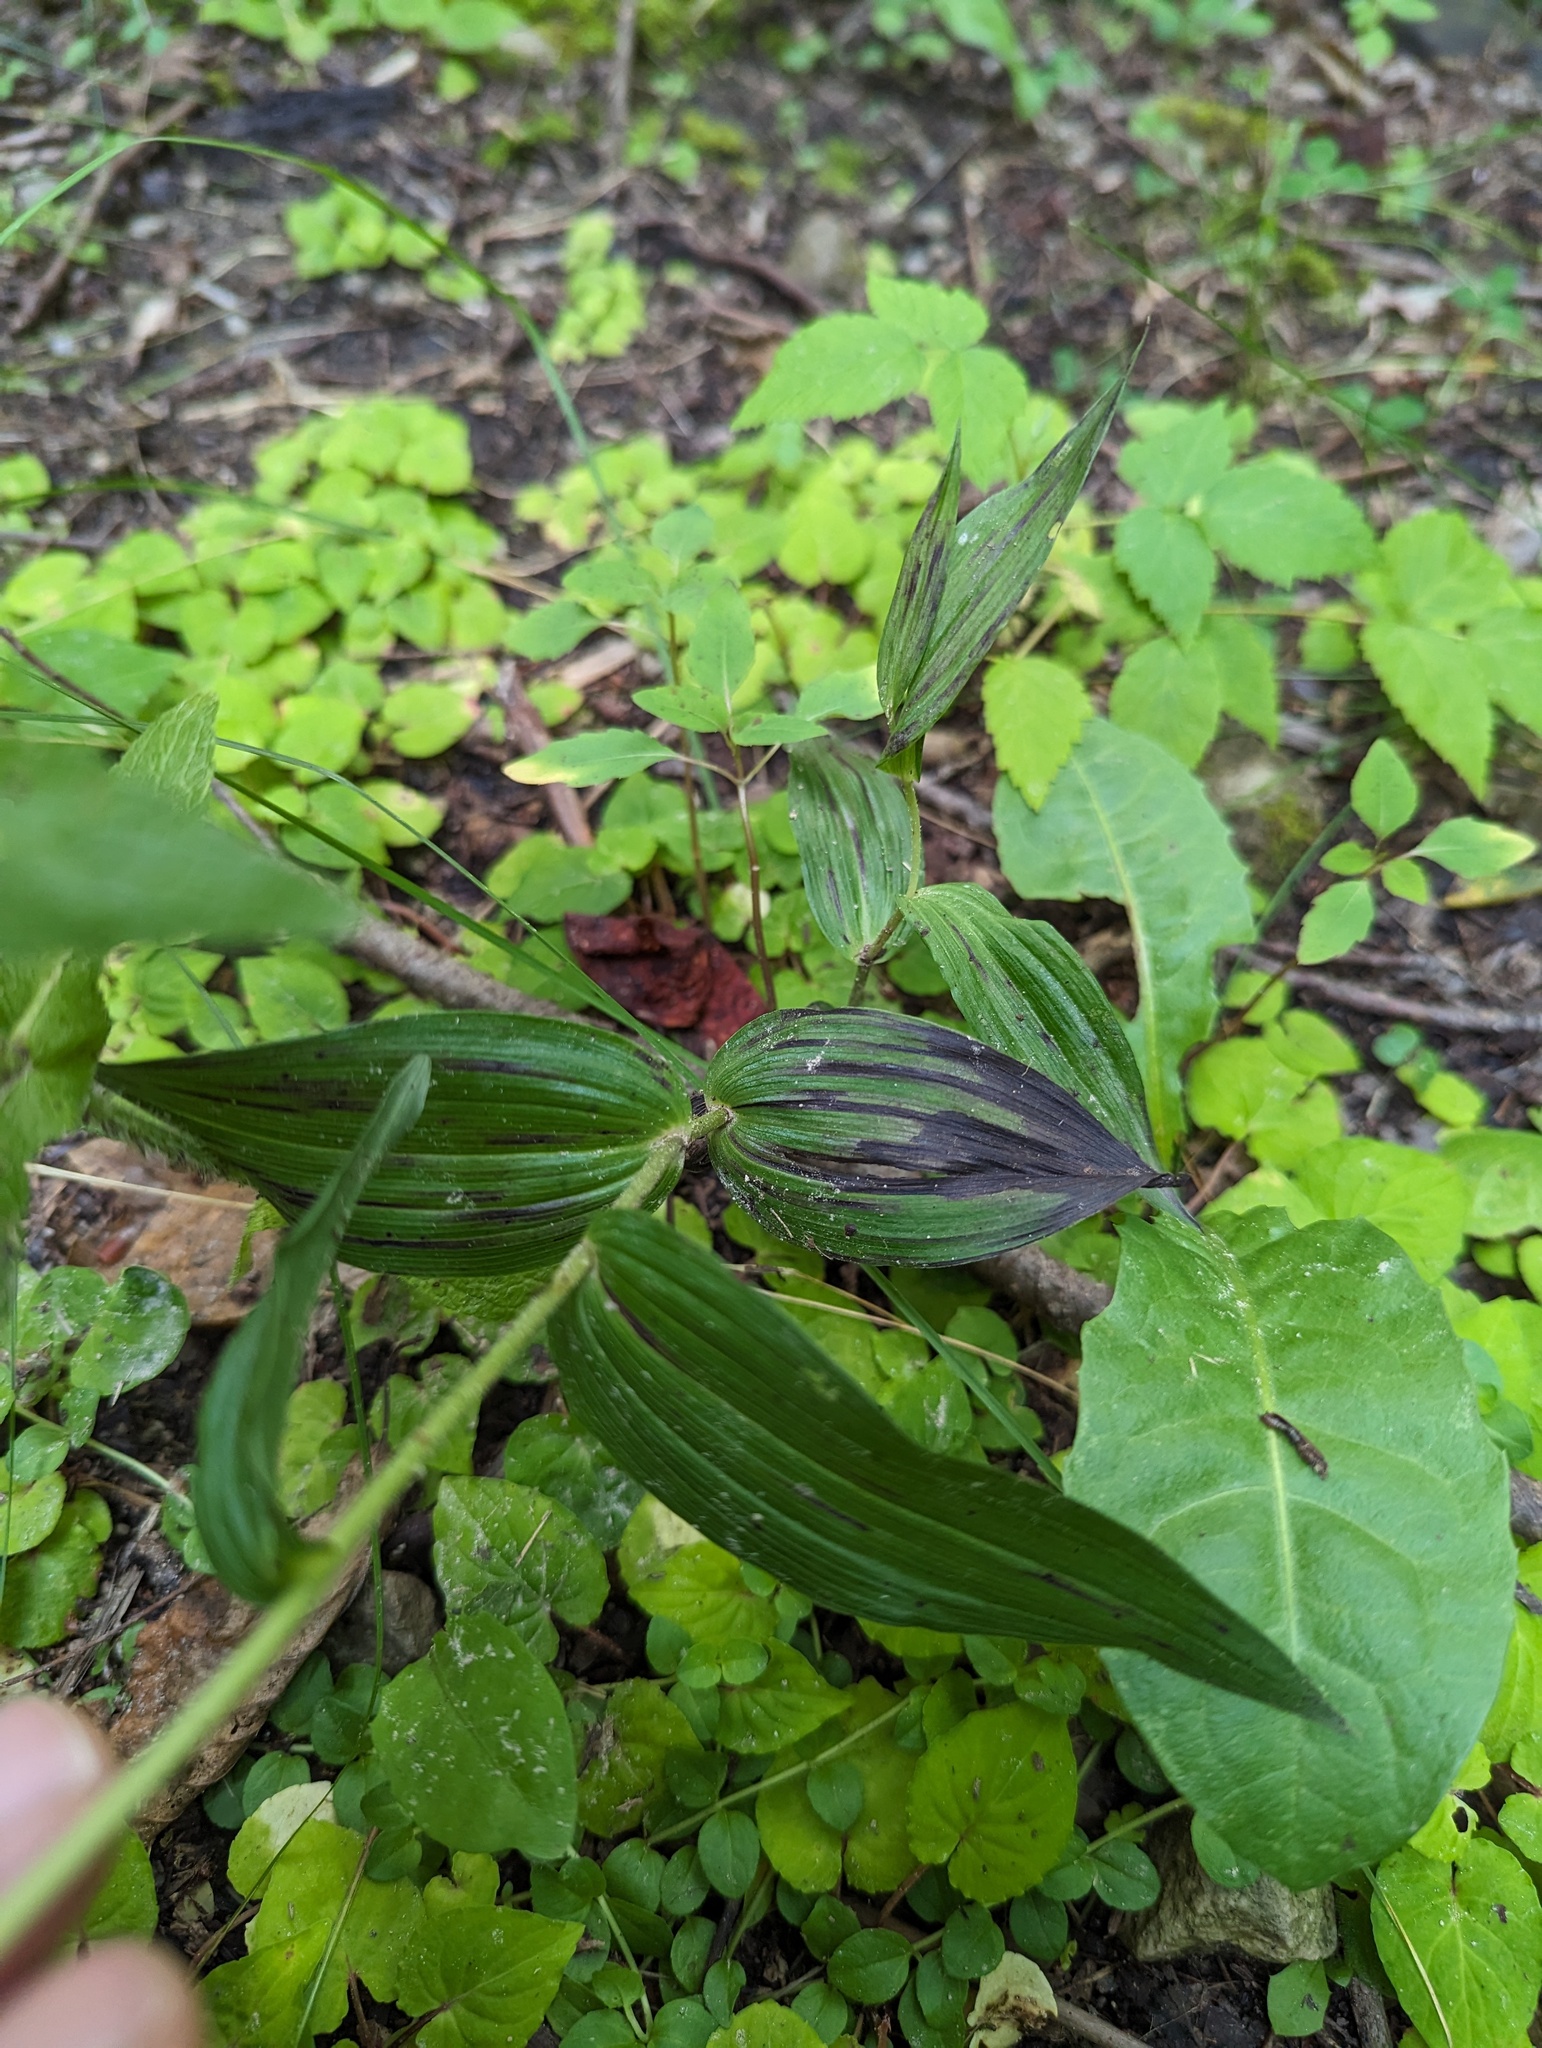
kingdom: Plantae
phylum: Tracheophyta
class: Liliopsida
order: Asparagales
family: Orchidaceae
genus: Epipactis
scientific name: Epipactis helleborine
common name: Broad-leaved helleborine
